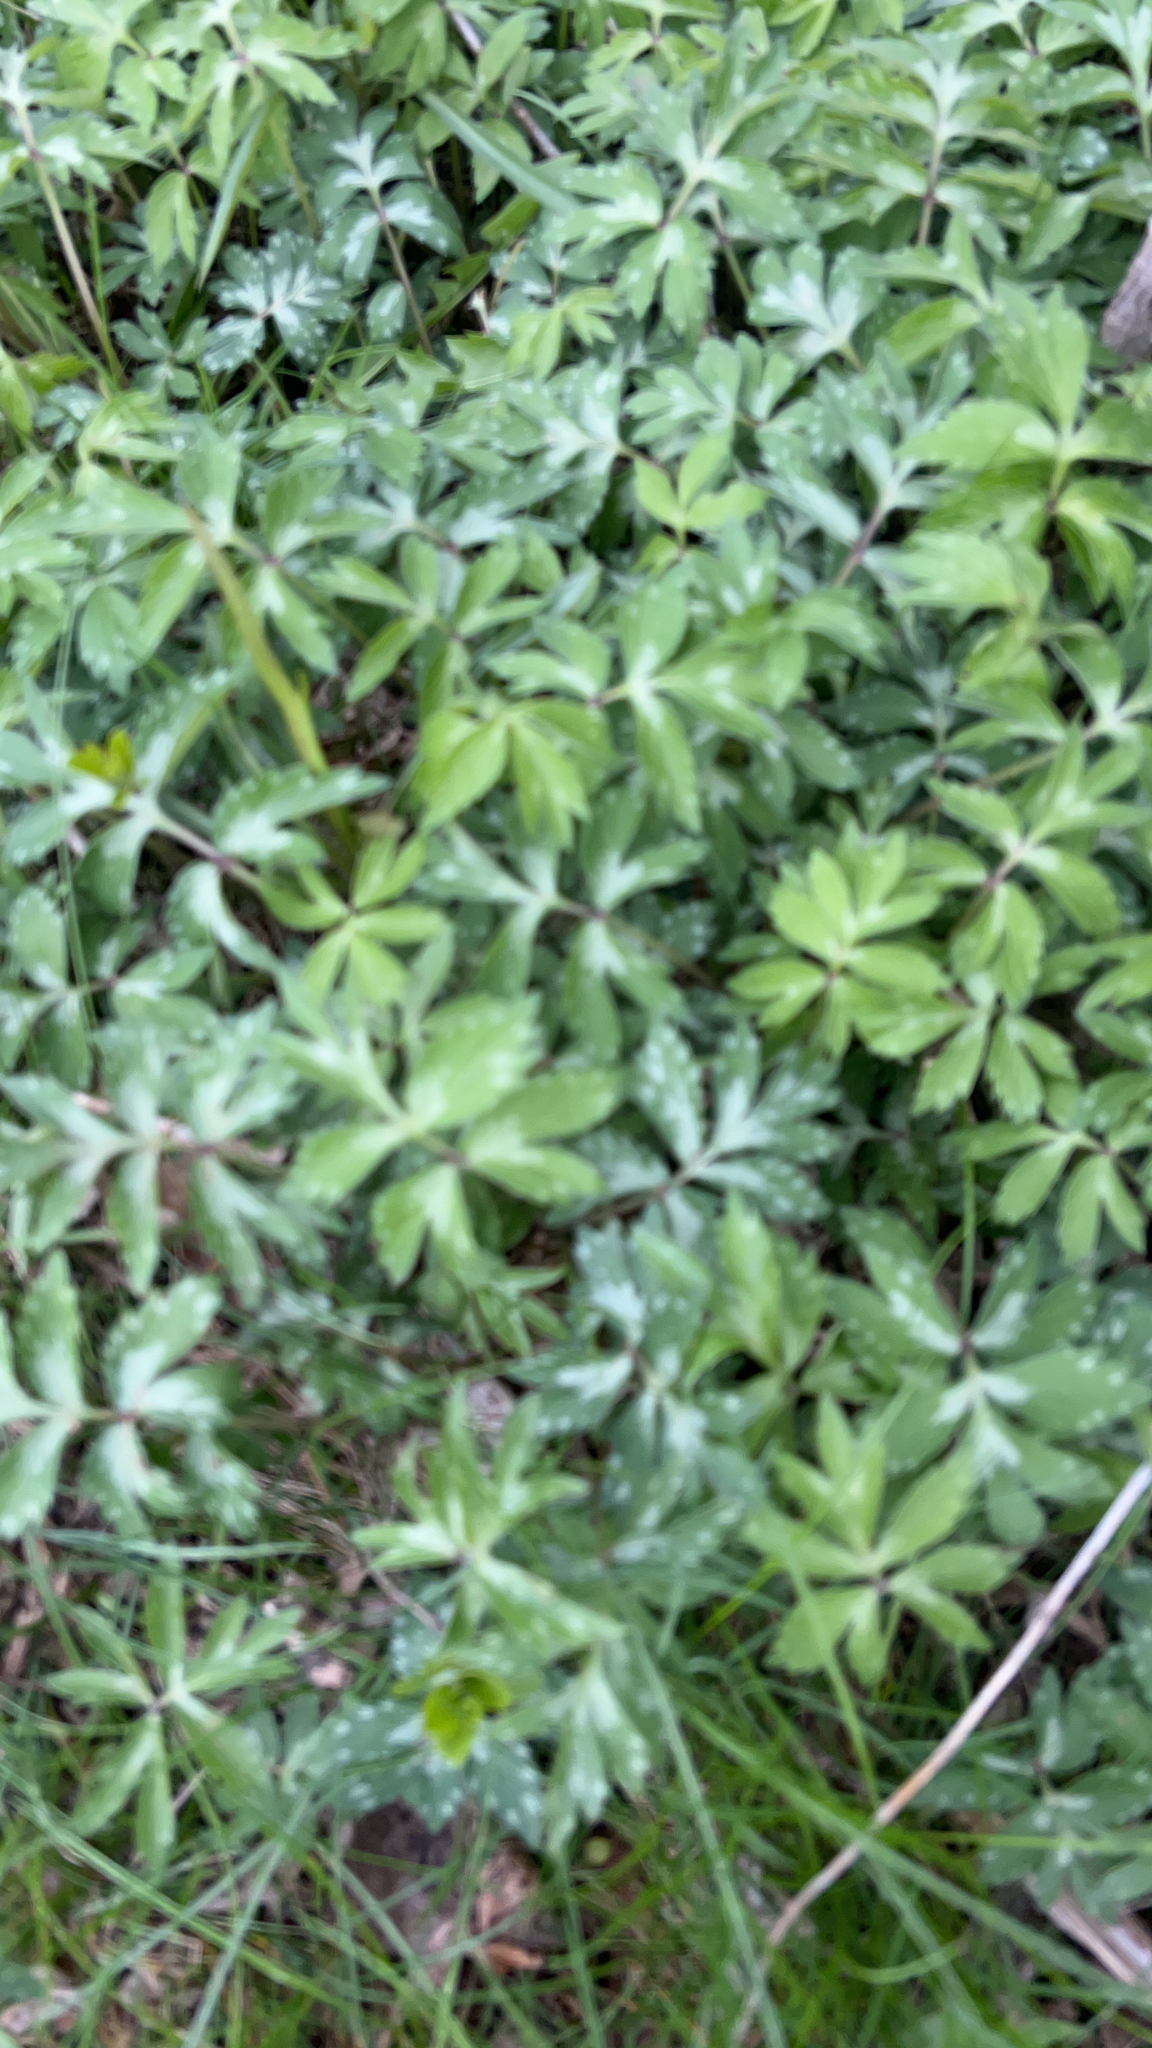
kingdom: Plantae
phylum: Tracheophyta
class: Magnoliopsida
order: Boraginales
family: Hydrophyllaceae
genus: Hydrophyllum
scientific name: Hydrophyllum virginianum
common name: Virginia waterleaf
